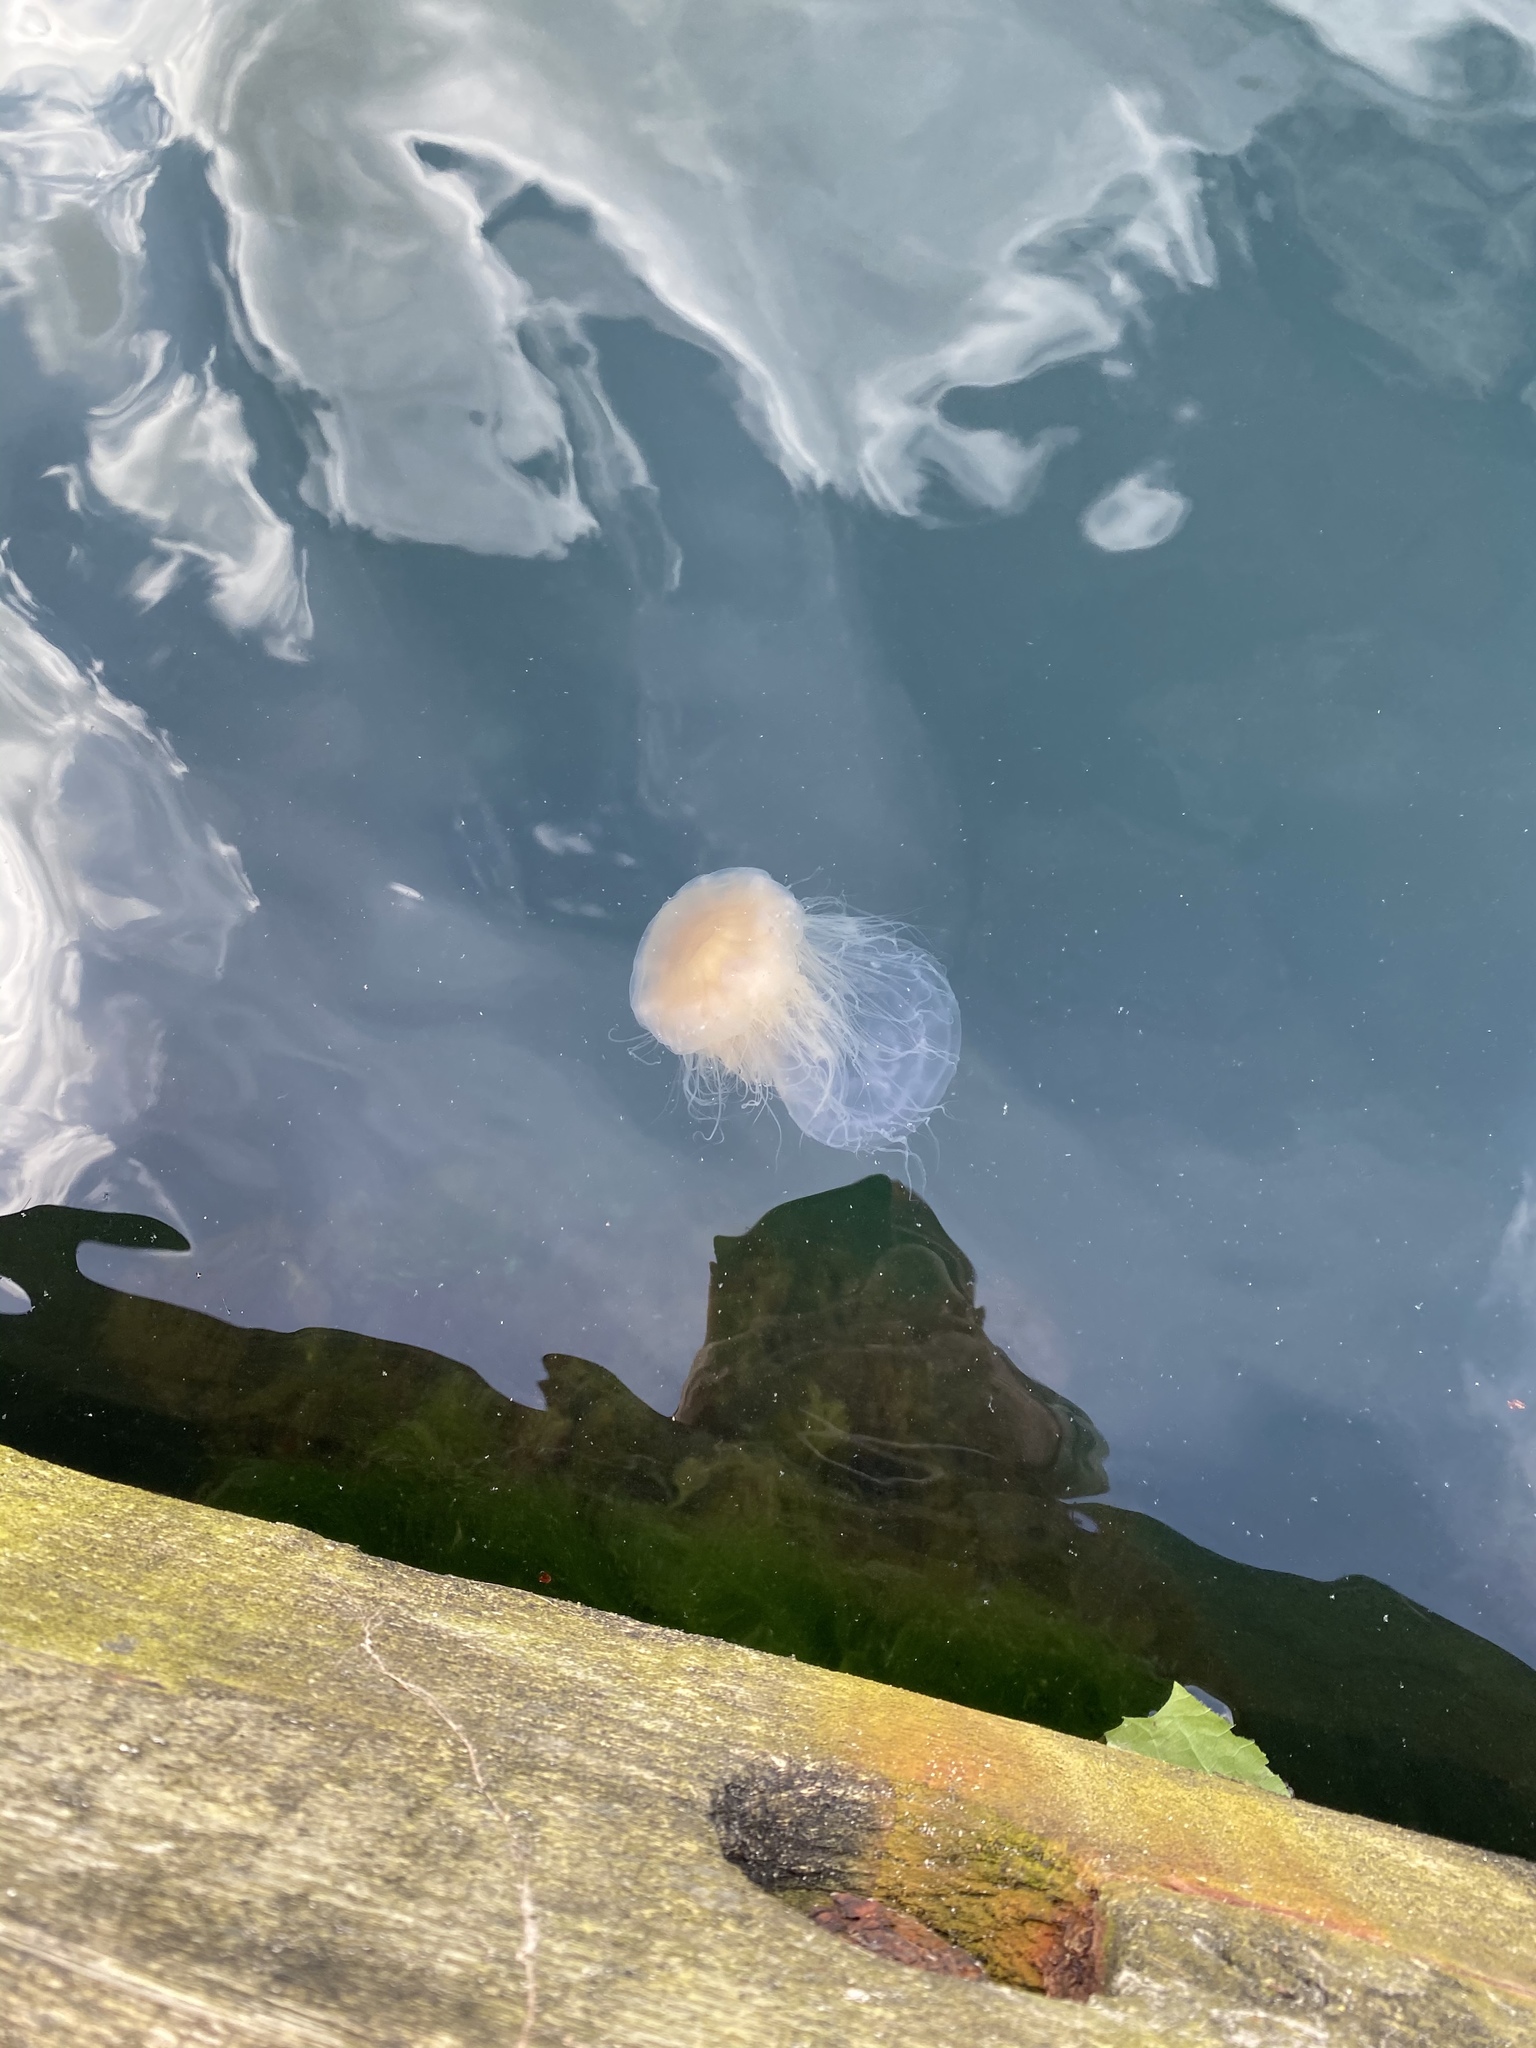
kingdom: Animalia
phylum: Cnidaria
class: Scyphozoa
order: Semaeostomeae
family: Cyaneidae
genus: Cyanea
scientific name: Cyanea capillata
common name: Lion's mane jellyfish
